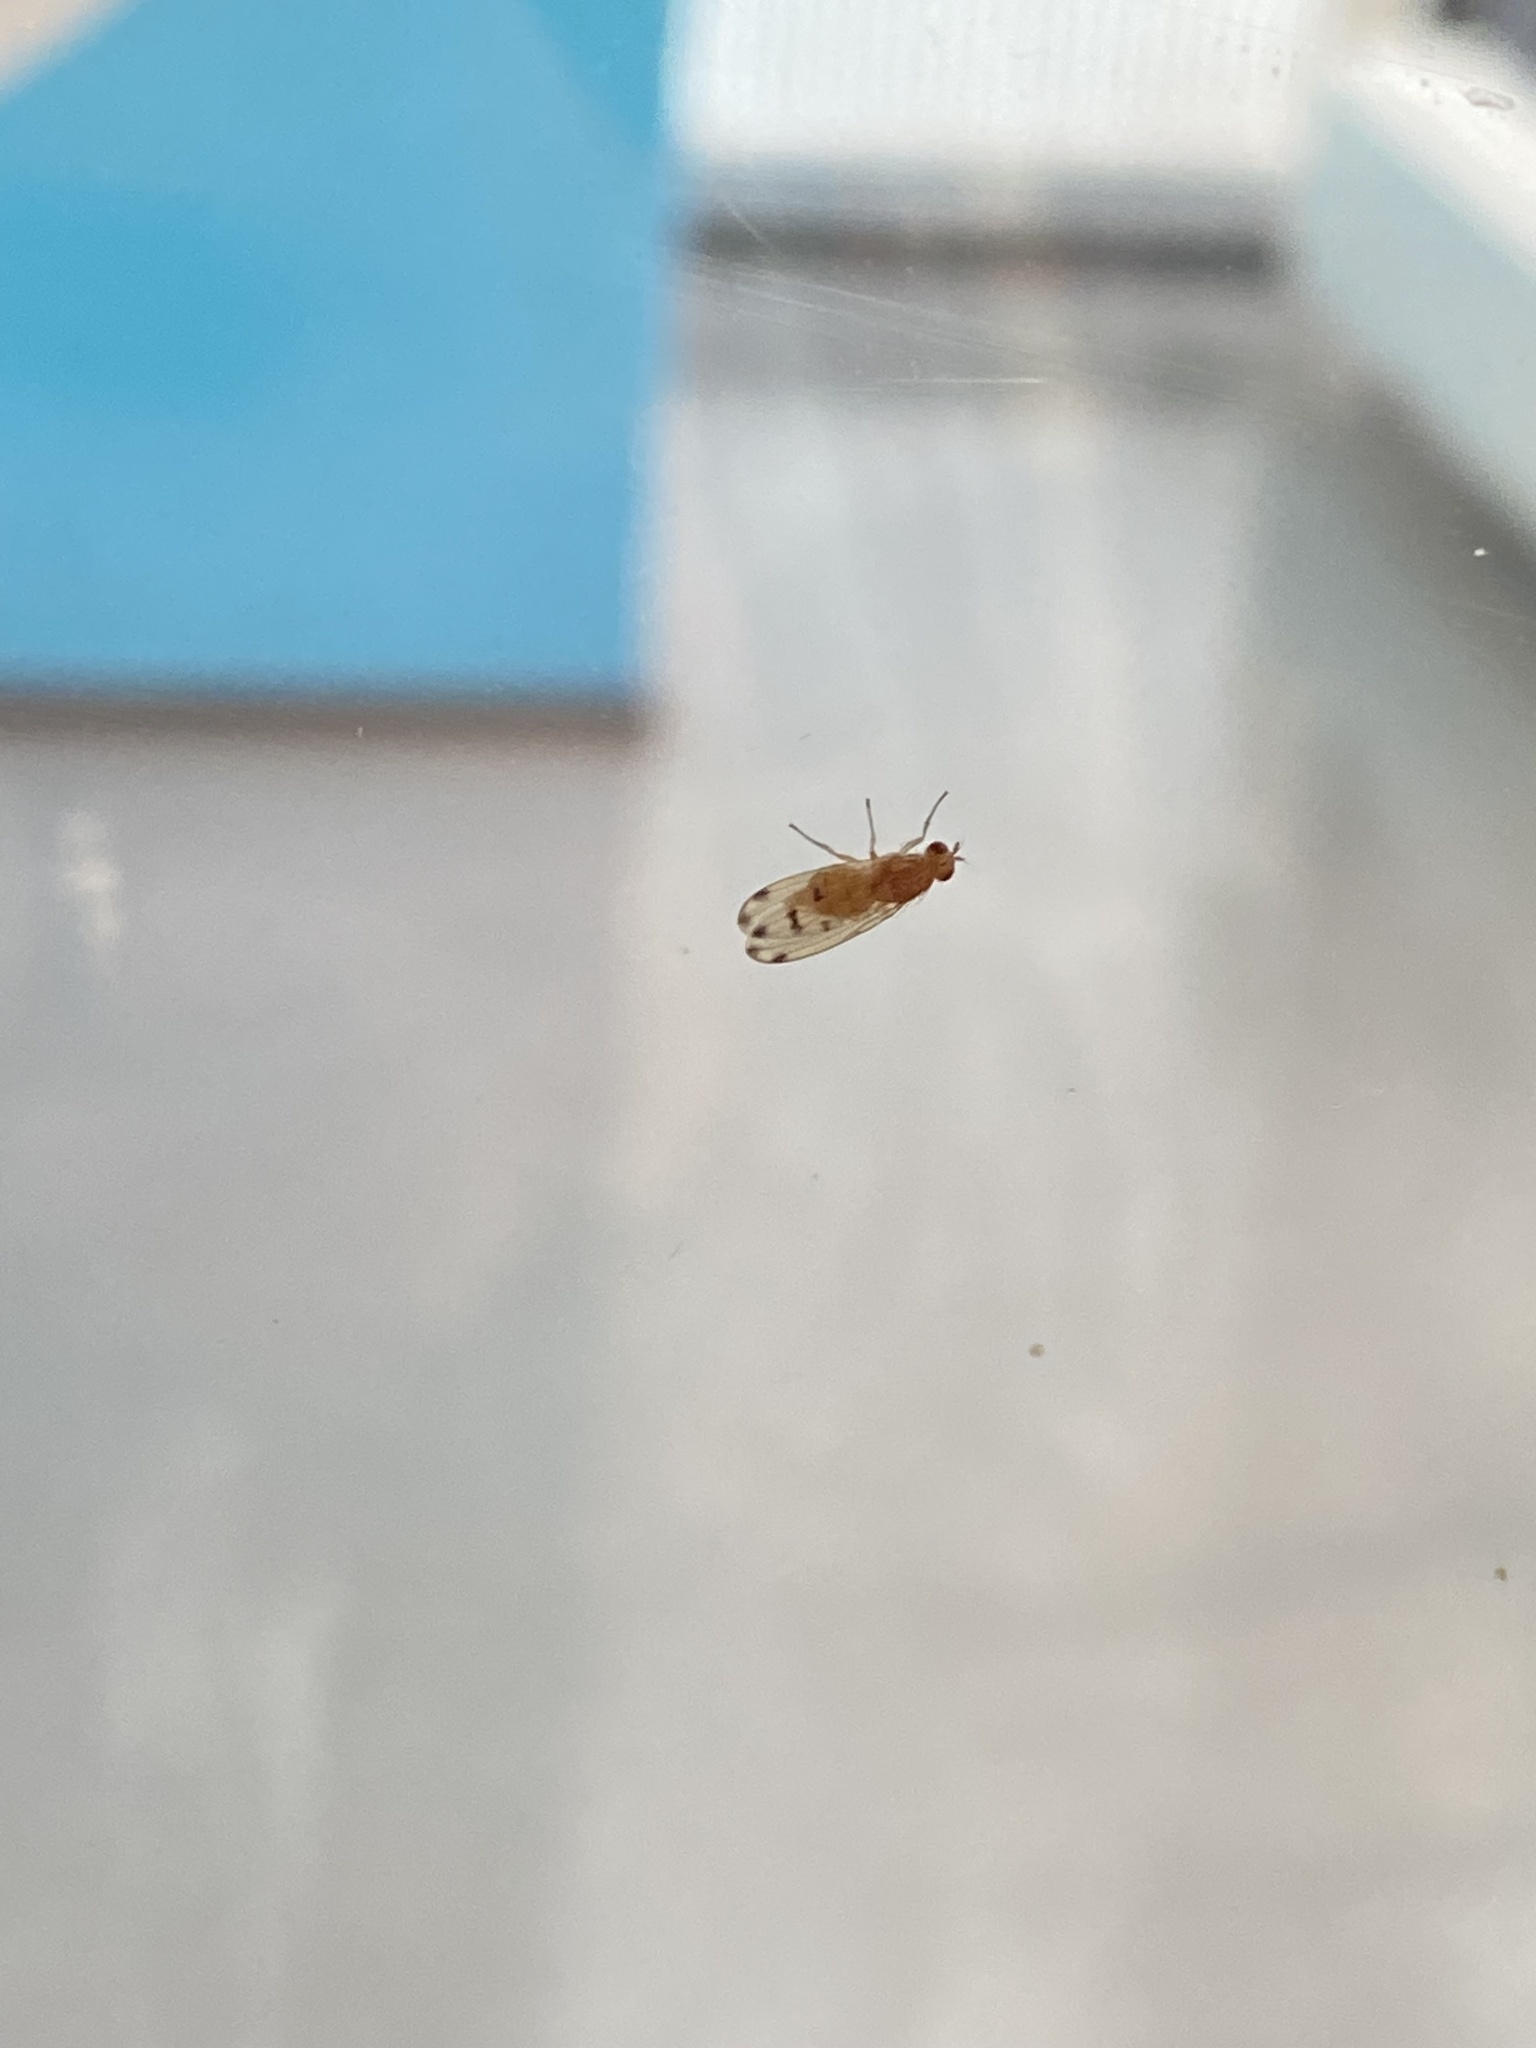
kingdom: Animalia
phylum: Arthropoda
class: Insecta
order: Diptera
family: Lauxaniidae
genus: Meiosimyza
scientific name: Meiosimyza decempunctata
